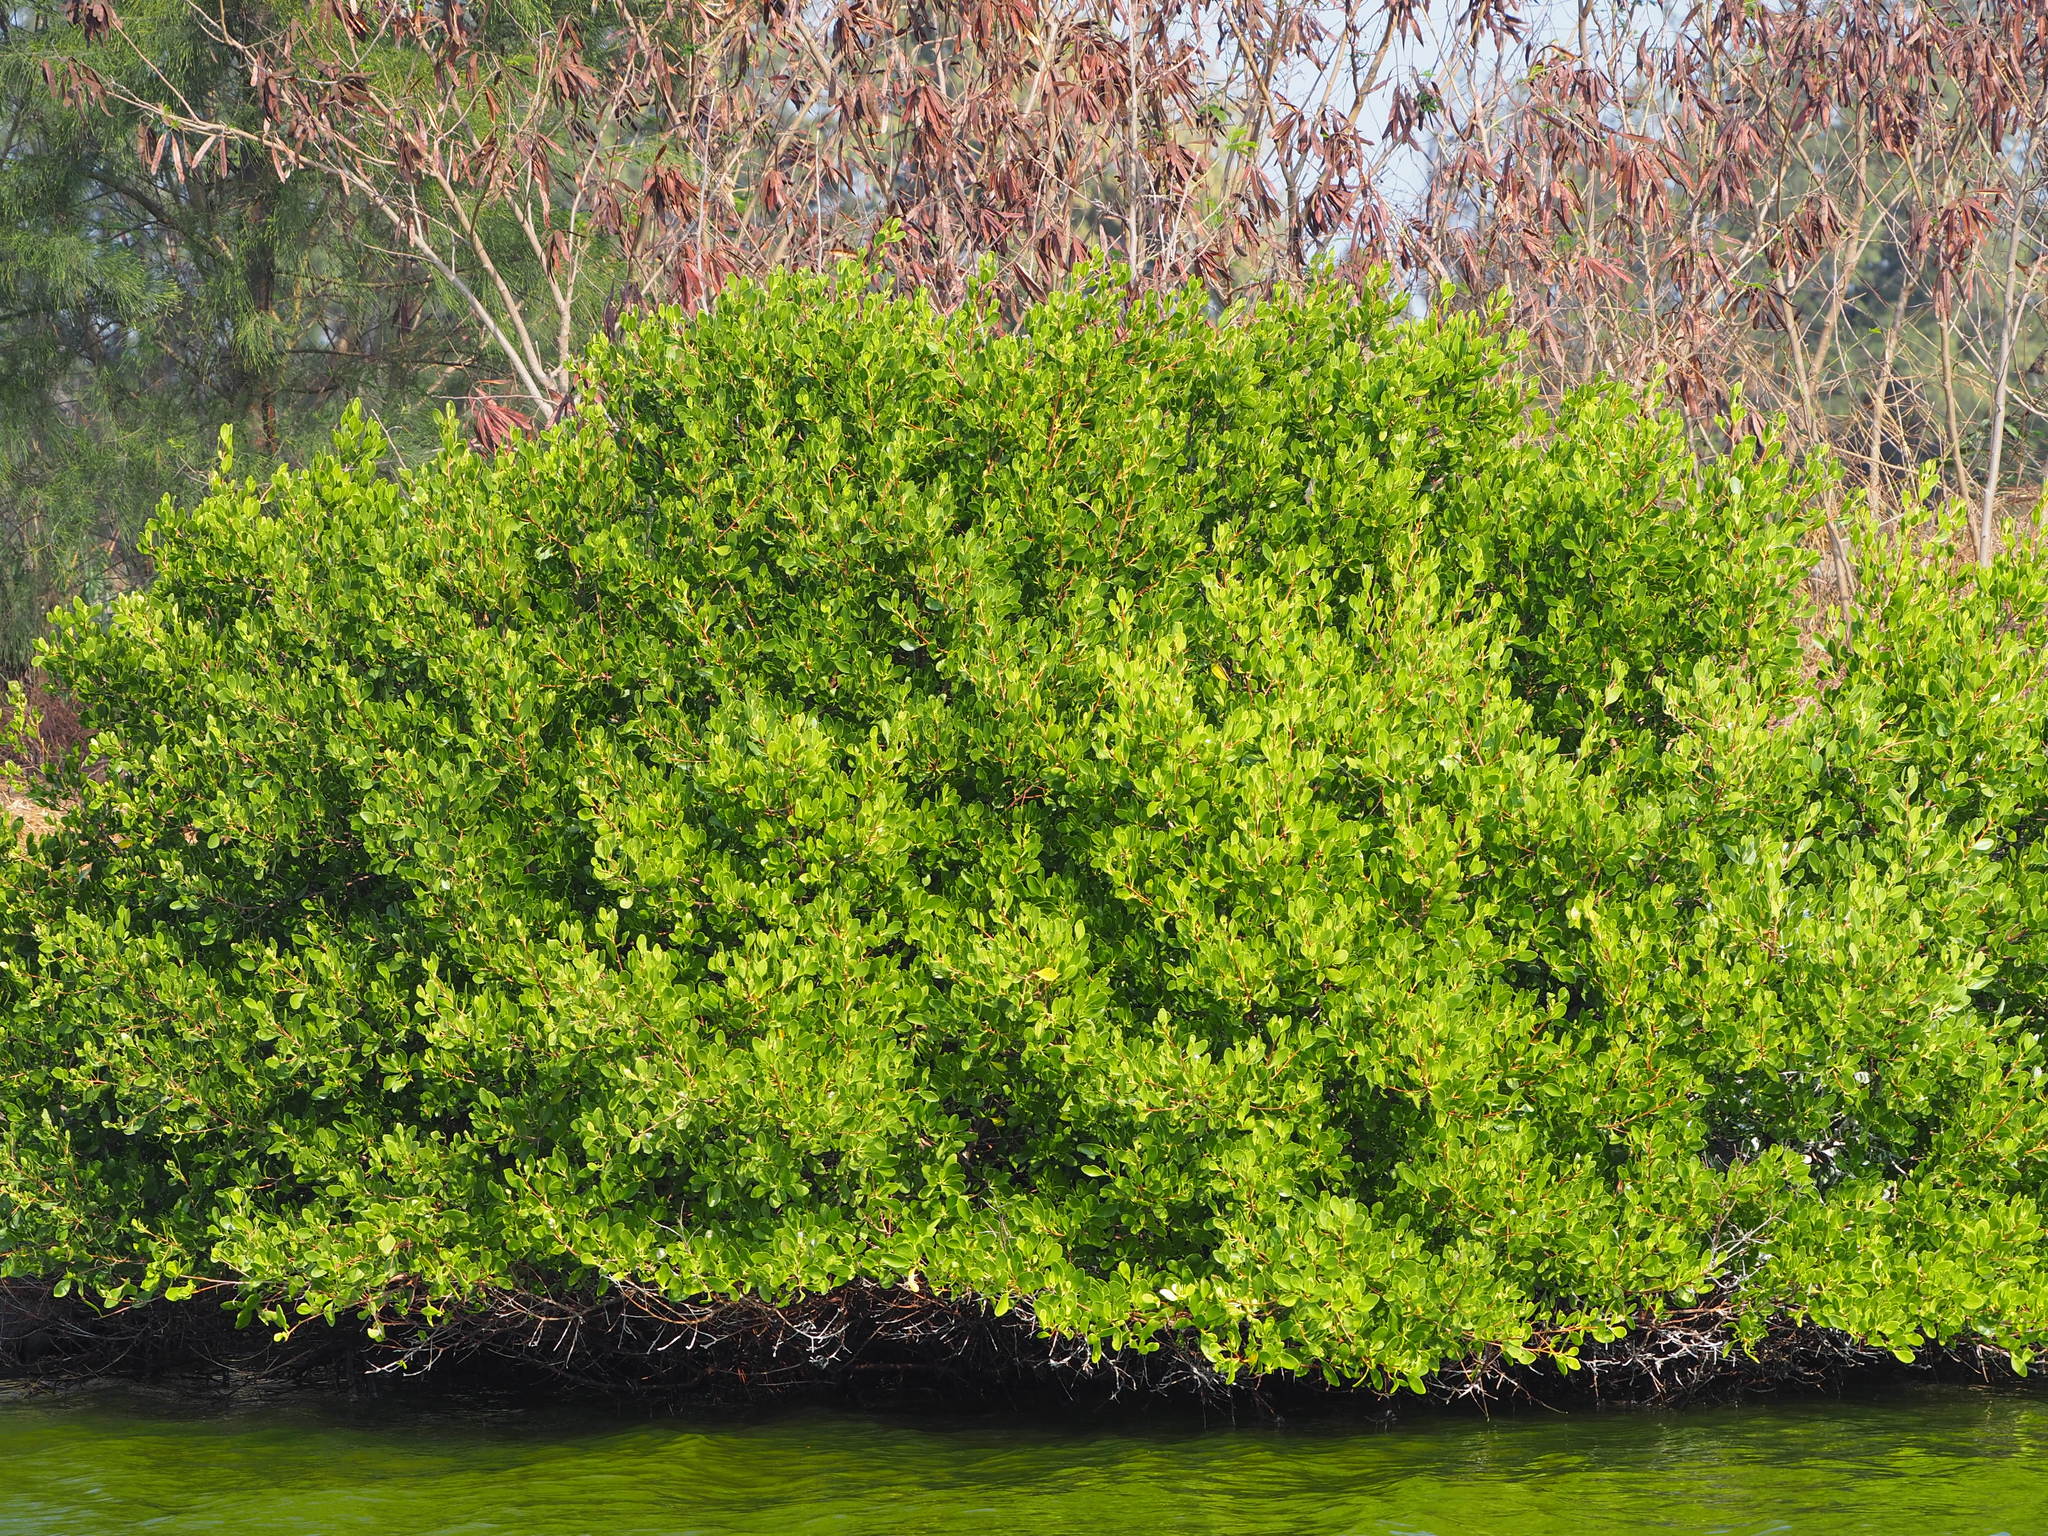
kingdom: Plantae
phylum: Tracheophyta
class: Magnoliopsida
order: Myrtales
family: Combretaceae
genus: Lumnitzera
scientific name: Lumnitzera racemosa
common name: White-flowered black mangrove
